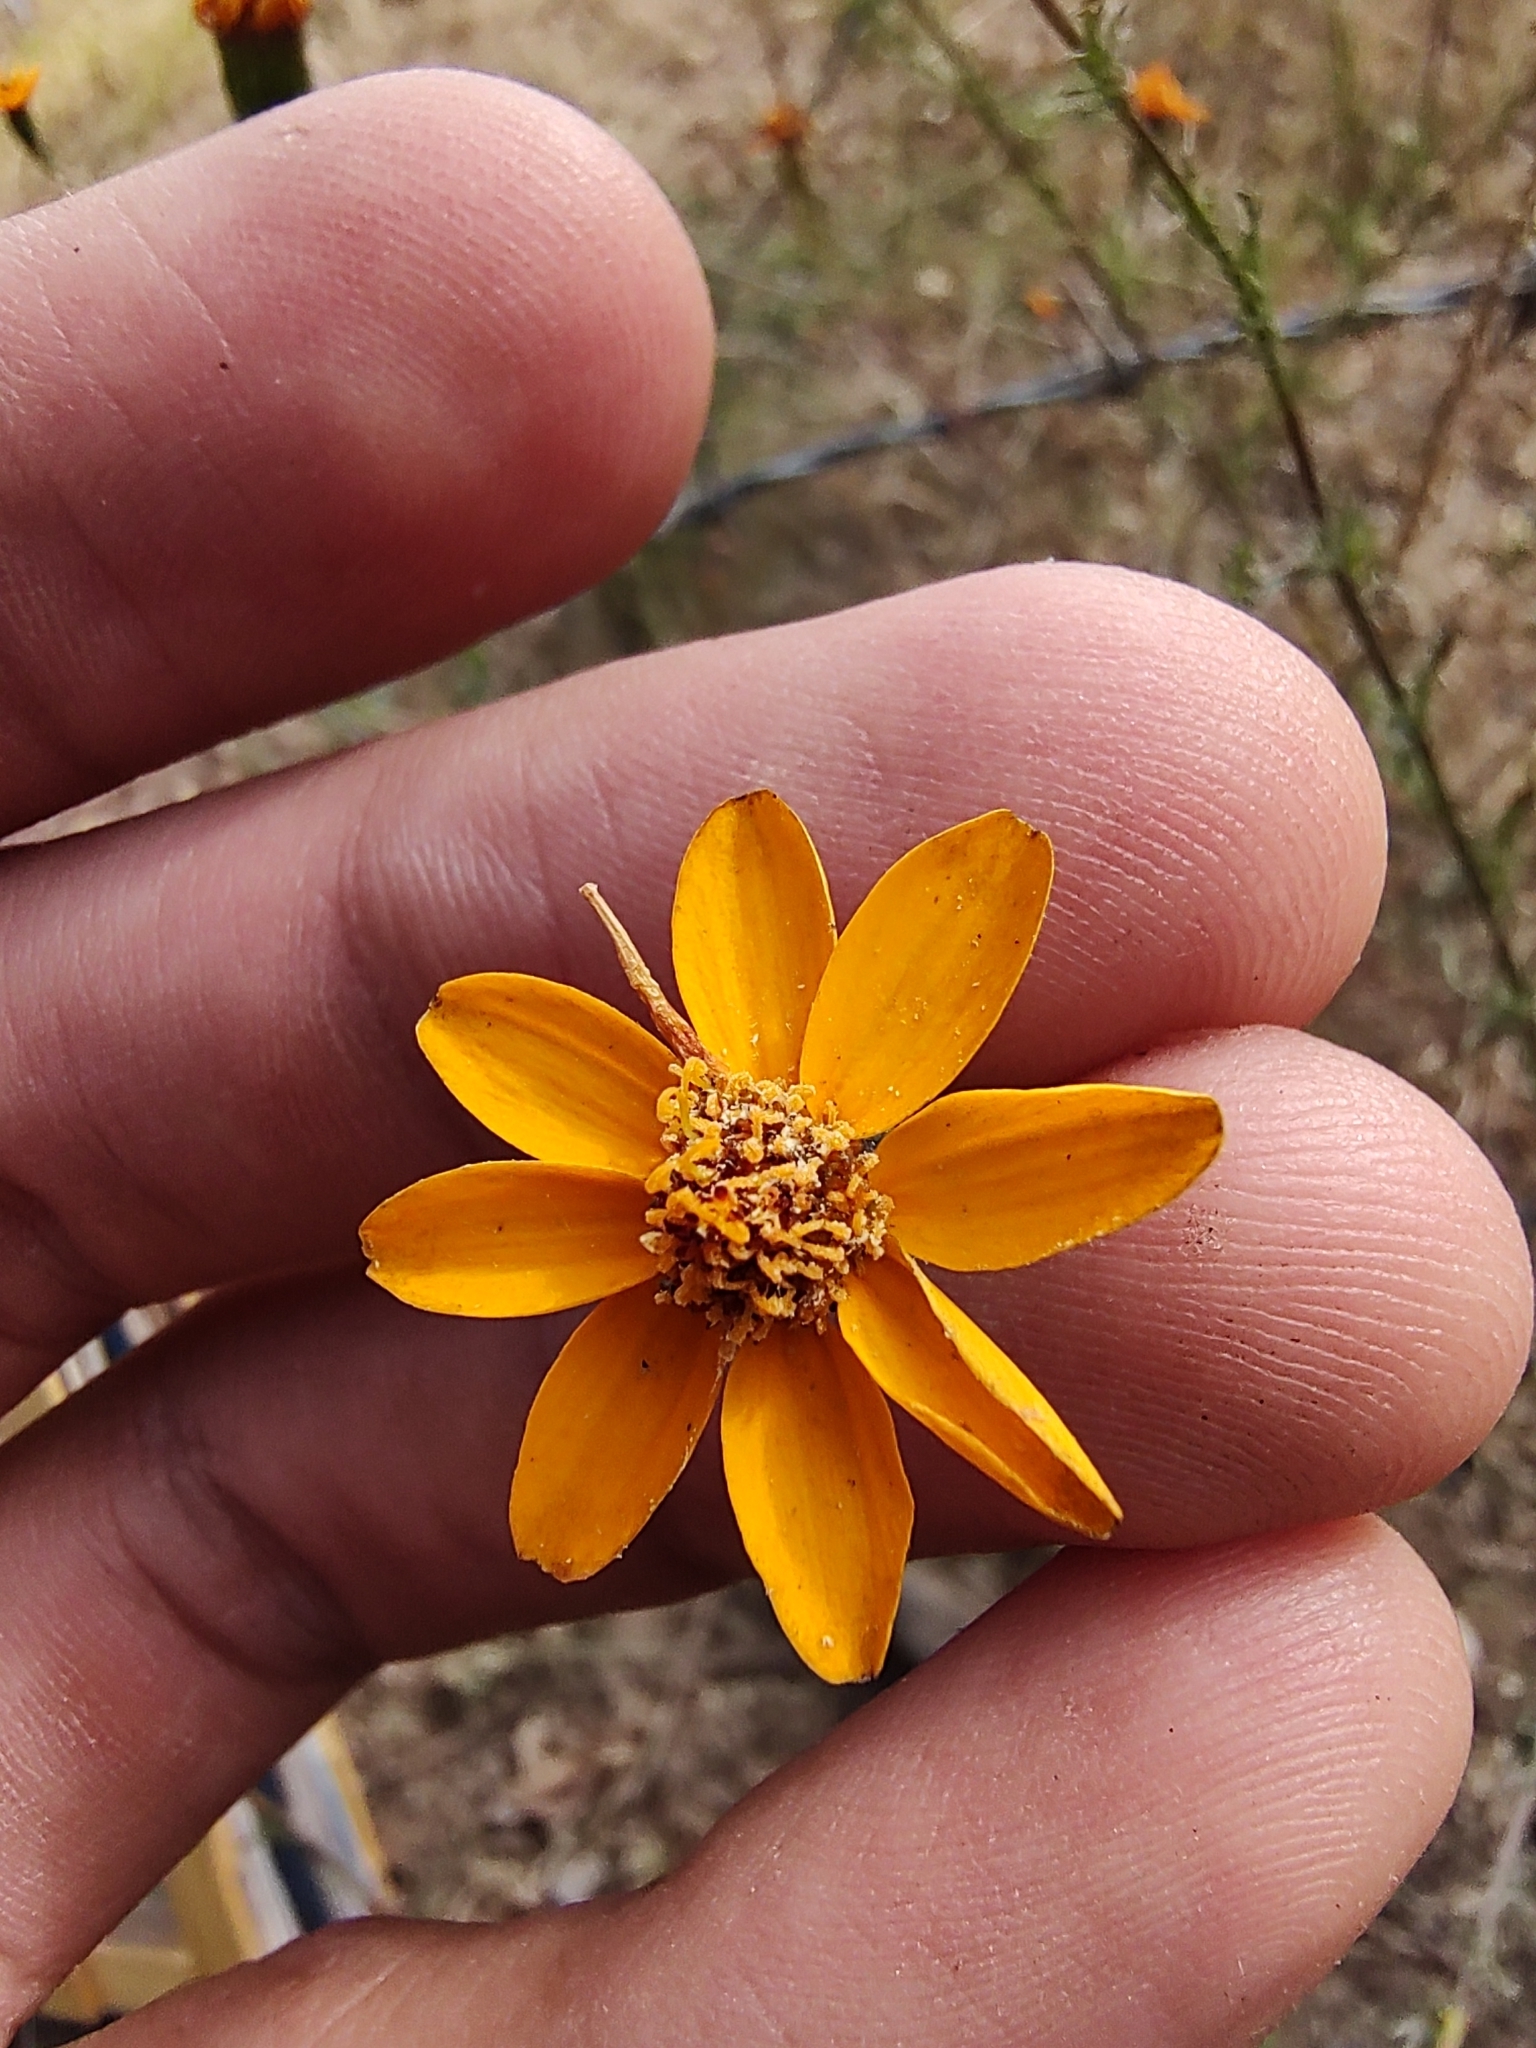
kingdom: Plantae
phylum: Tracheophyta
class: Magnoliopsida
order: Asterales
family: Asteraceae
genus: Adenophyllum
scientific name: Adenophyllum cancellatum
